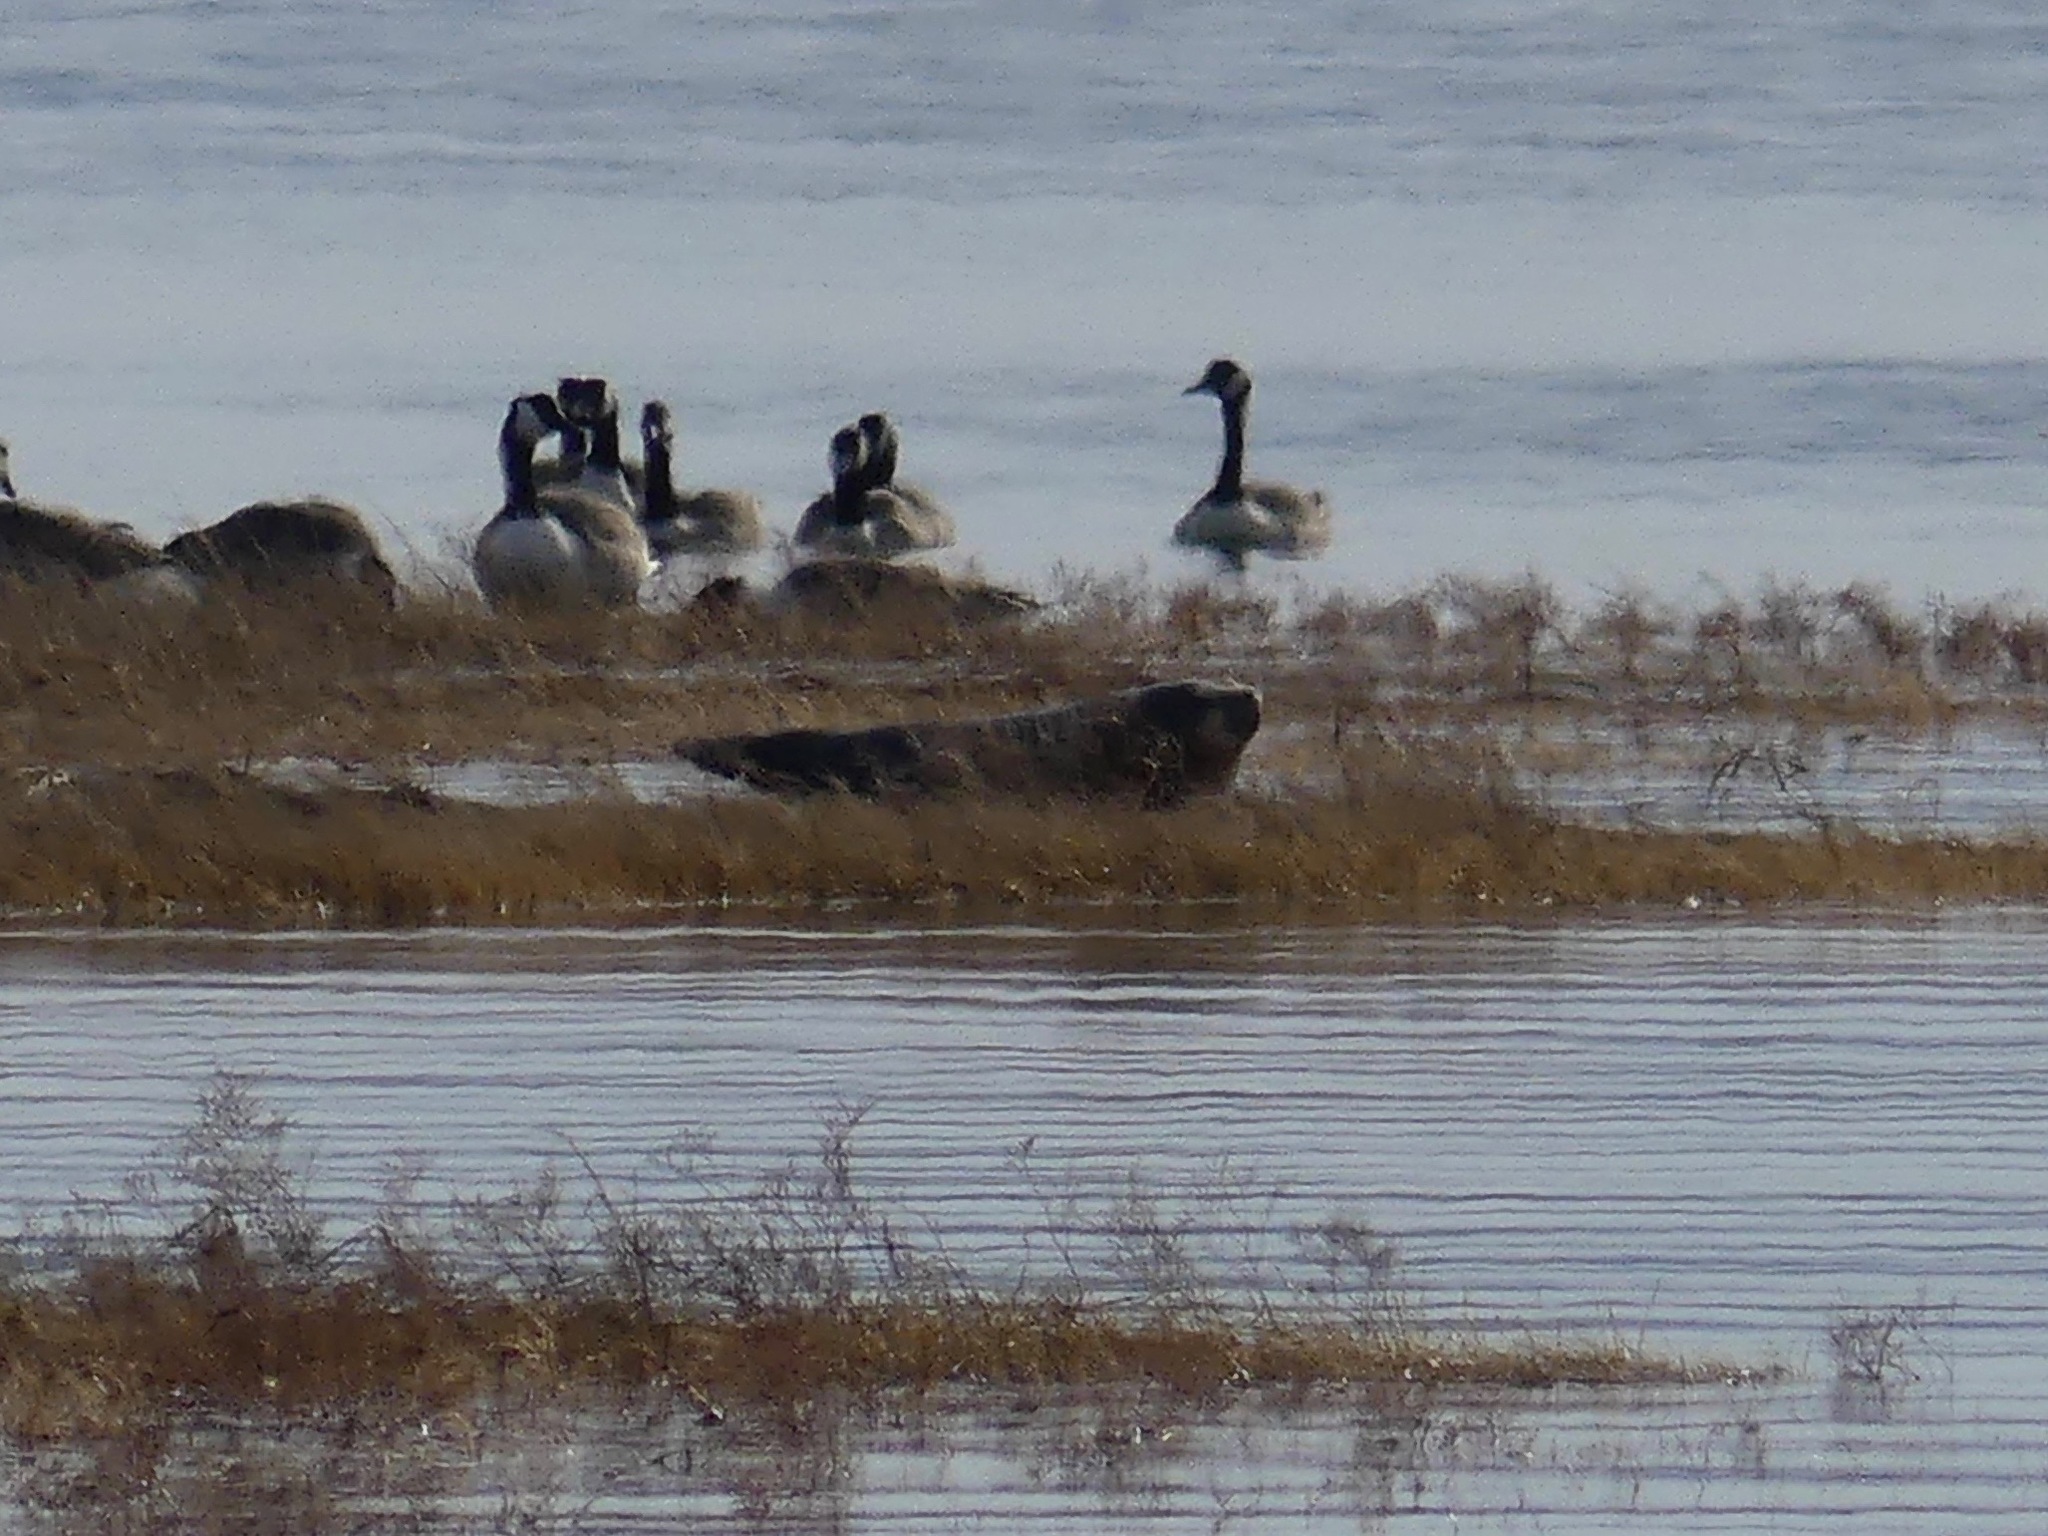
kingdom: Animalia
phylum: Chordata
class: Mammalia
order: Carnivora
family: Phocidae
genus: Phoca
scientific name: Phoca vitulina
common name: Harbor seal
